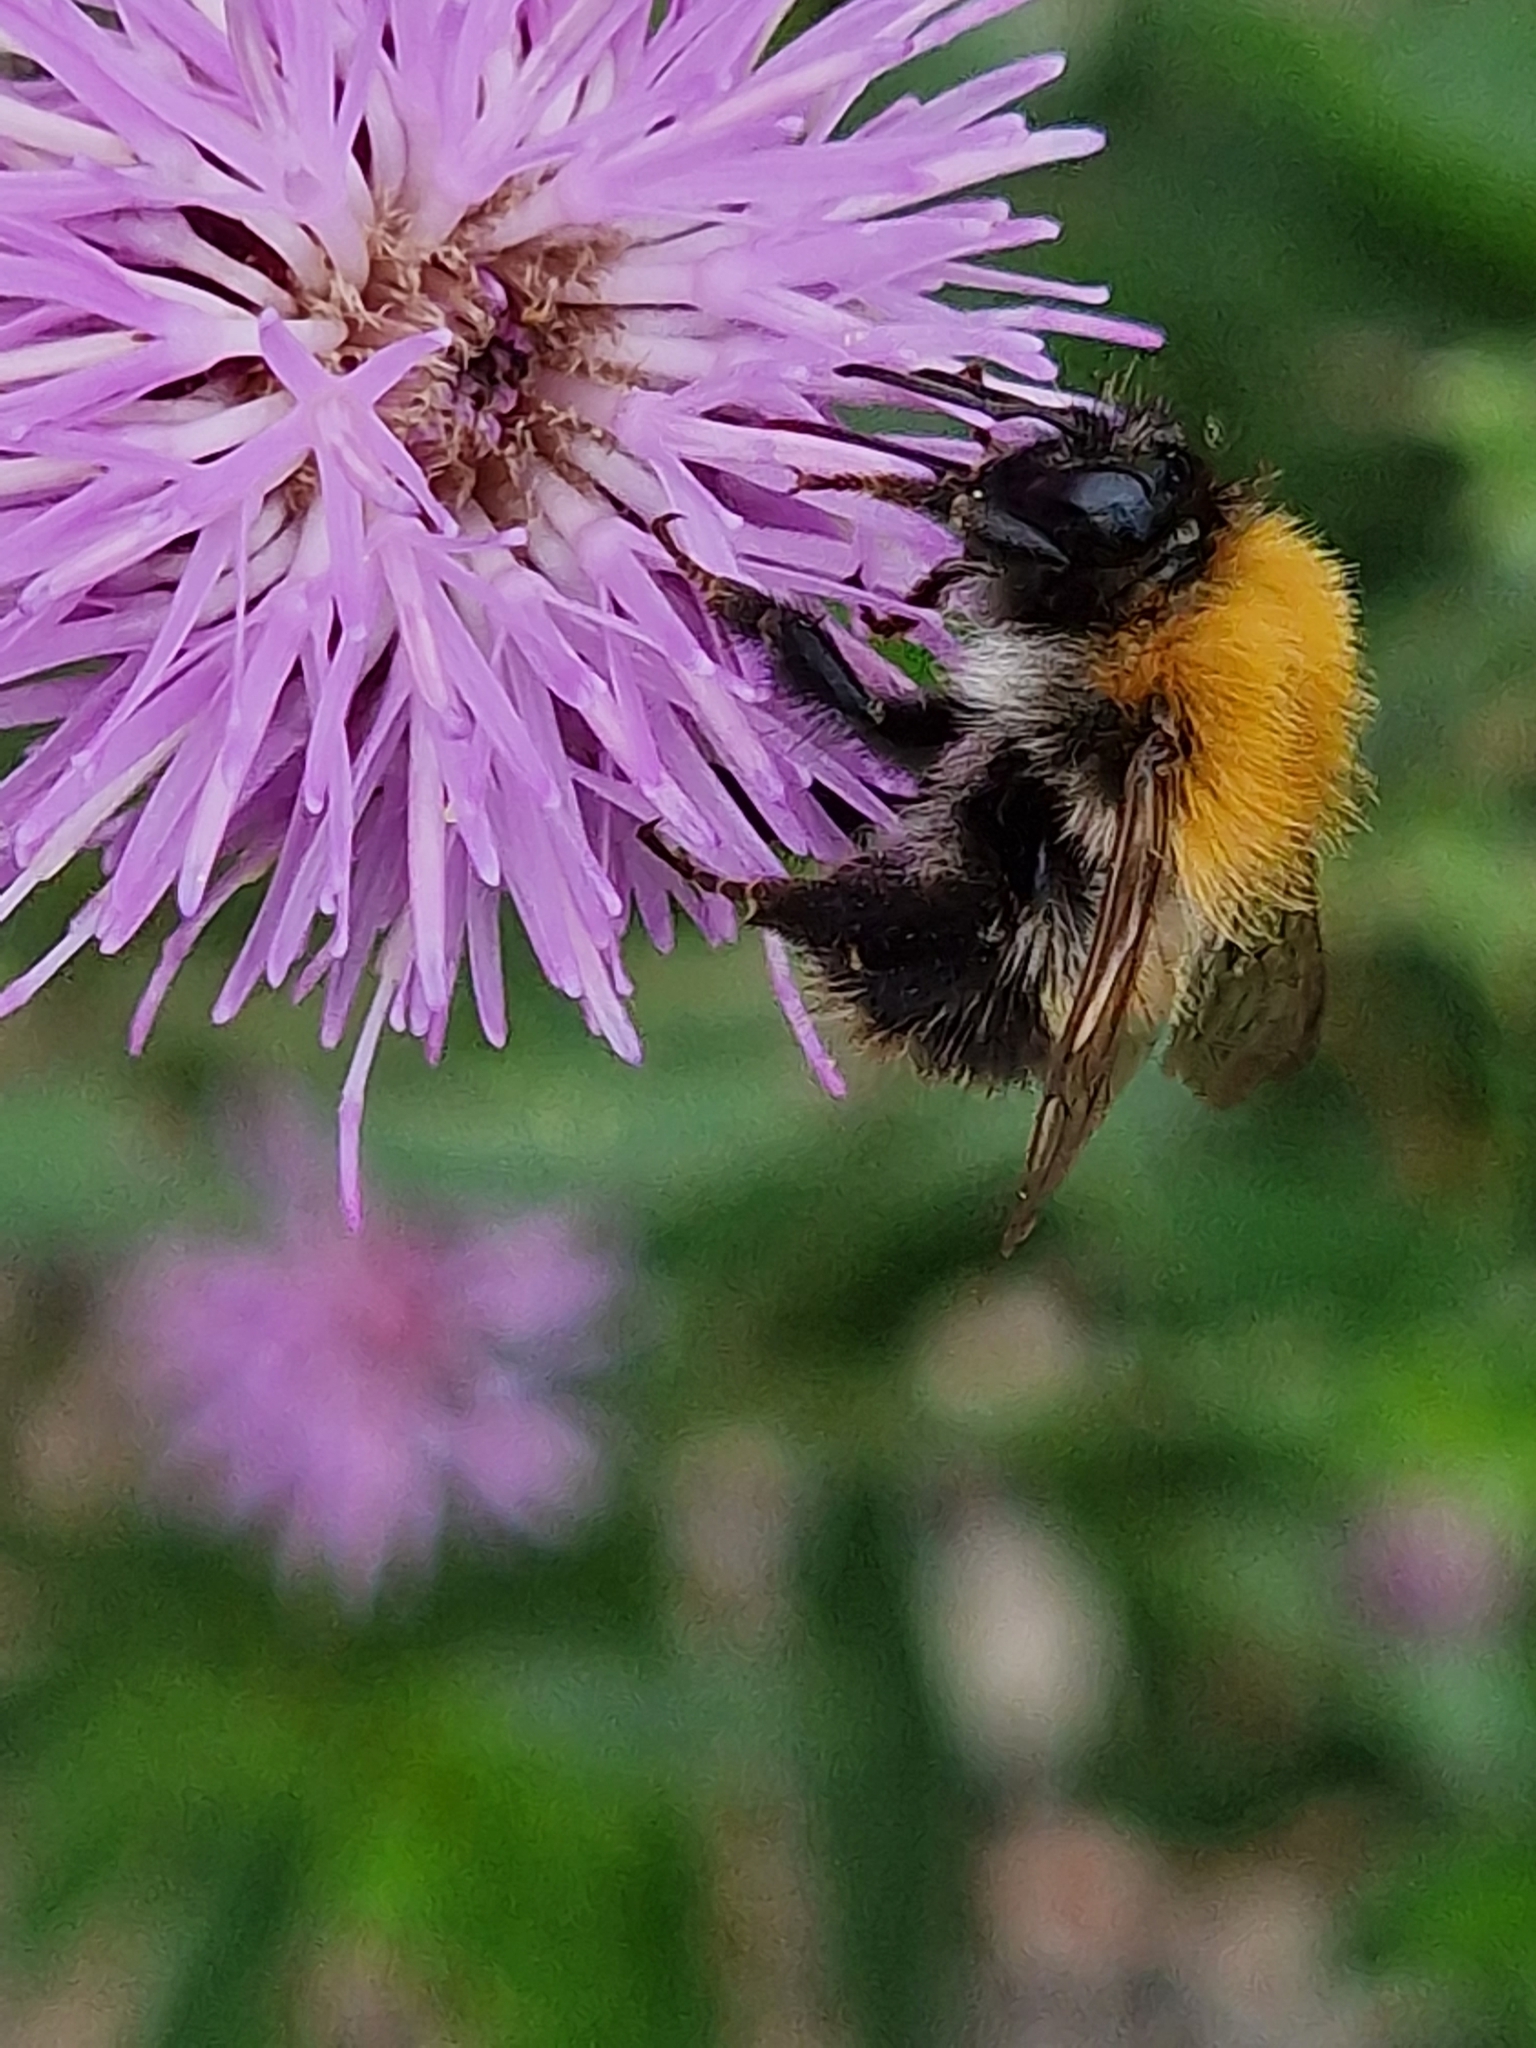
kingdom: Animalia
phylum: Arthropoda
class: Insecta
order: Hymenoptera
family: Apidae
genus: Bombus
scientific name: Bombus pascuorum
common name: Common carder bee
